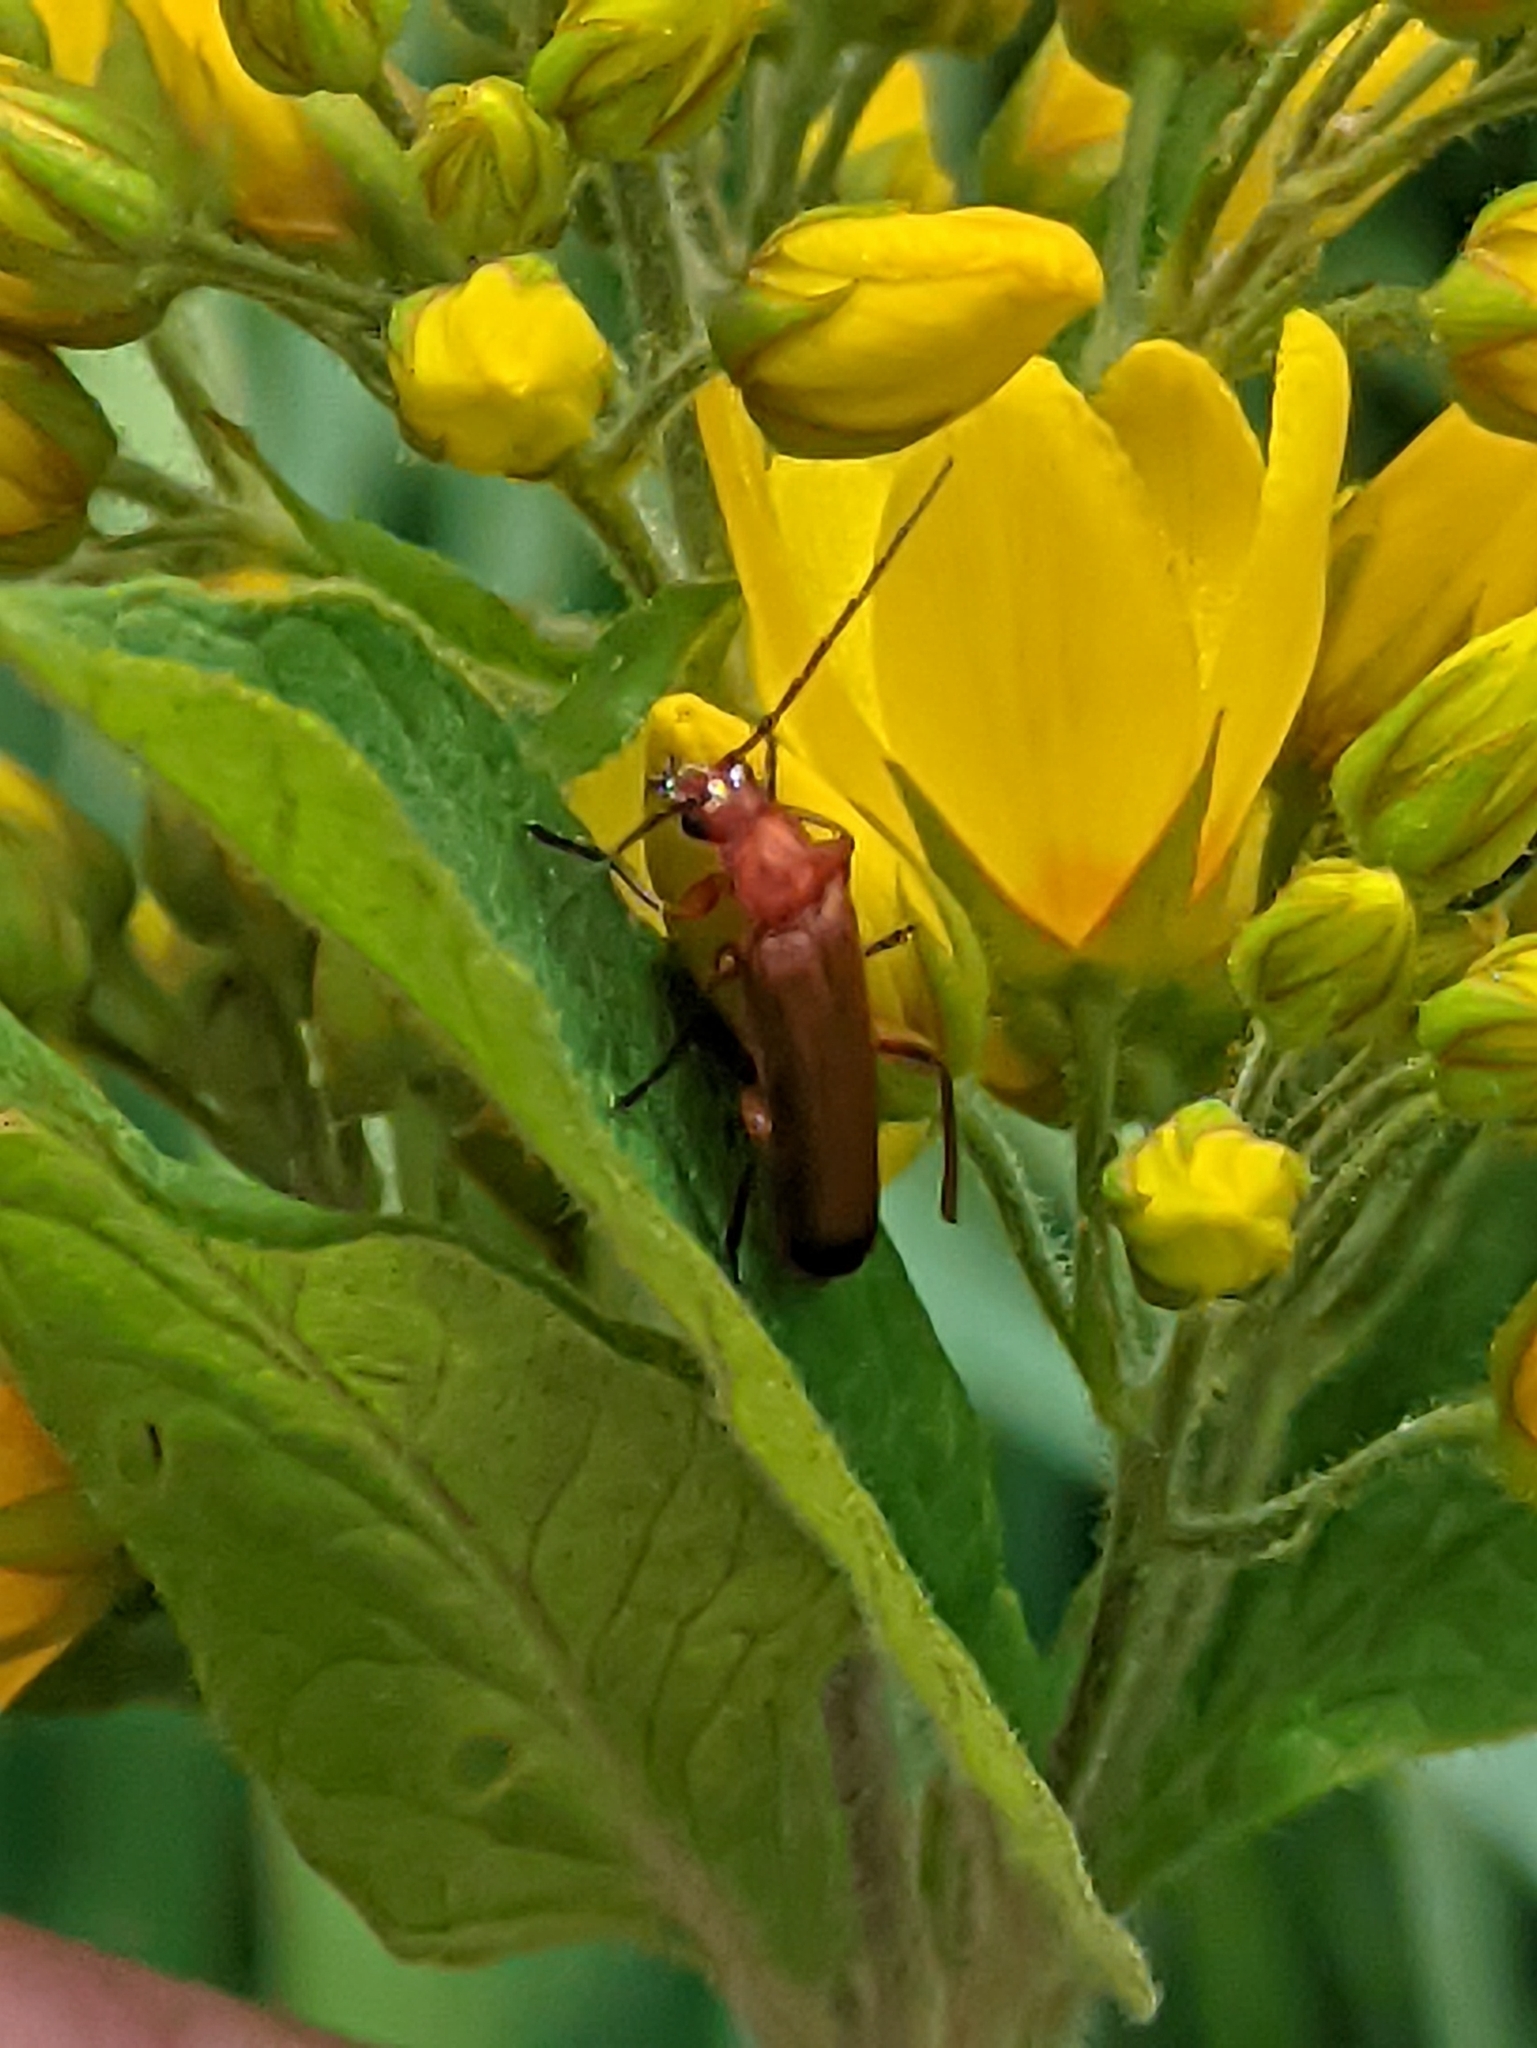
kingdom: Animalia
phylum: Arthropoda
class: Insecta
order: Coleoptera
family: Cantharidae
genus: Rhagonycha
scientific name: Rhagonycha fulva
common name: Common red soldier beetle
